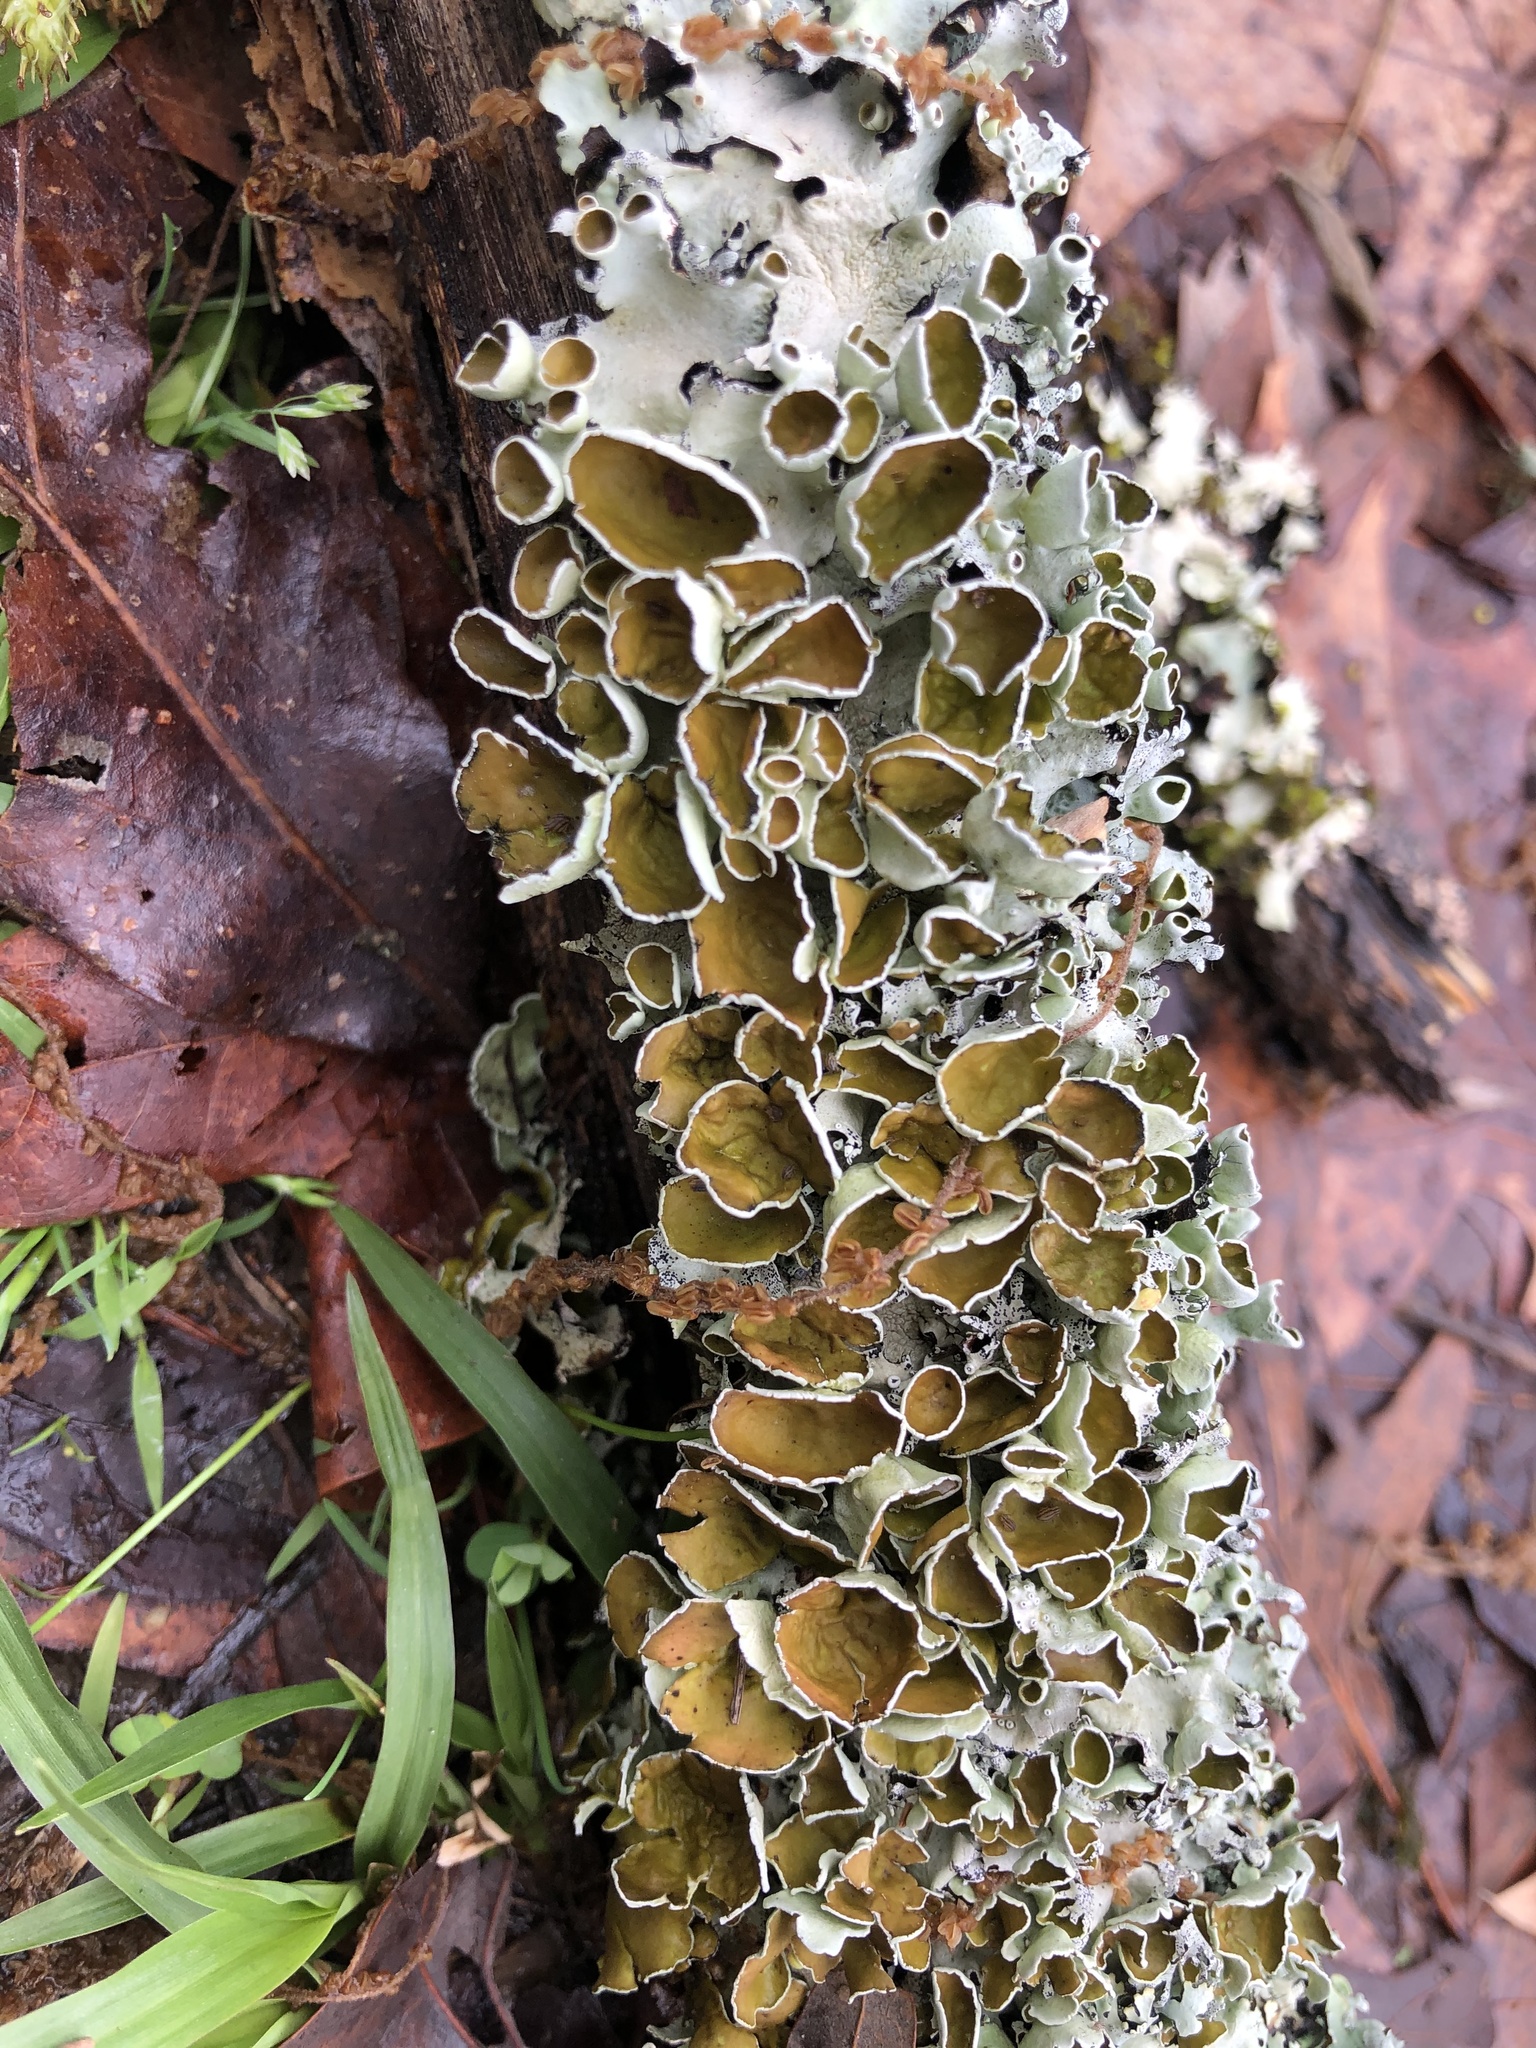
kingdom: Fungi
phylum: Ascomycota
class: Lecanoromycetes
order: Lecanorales
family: Parmeliaceae
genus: Parmotrema
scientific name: Parmotrema submarginale
